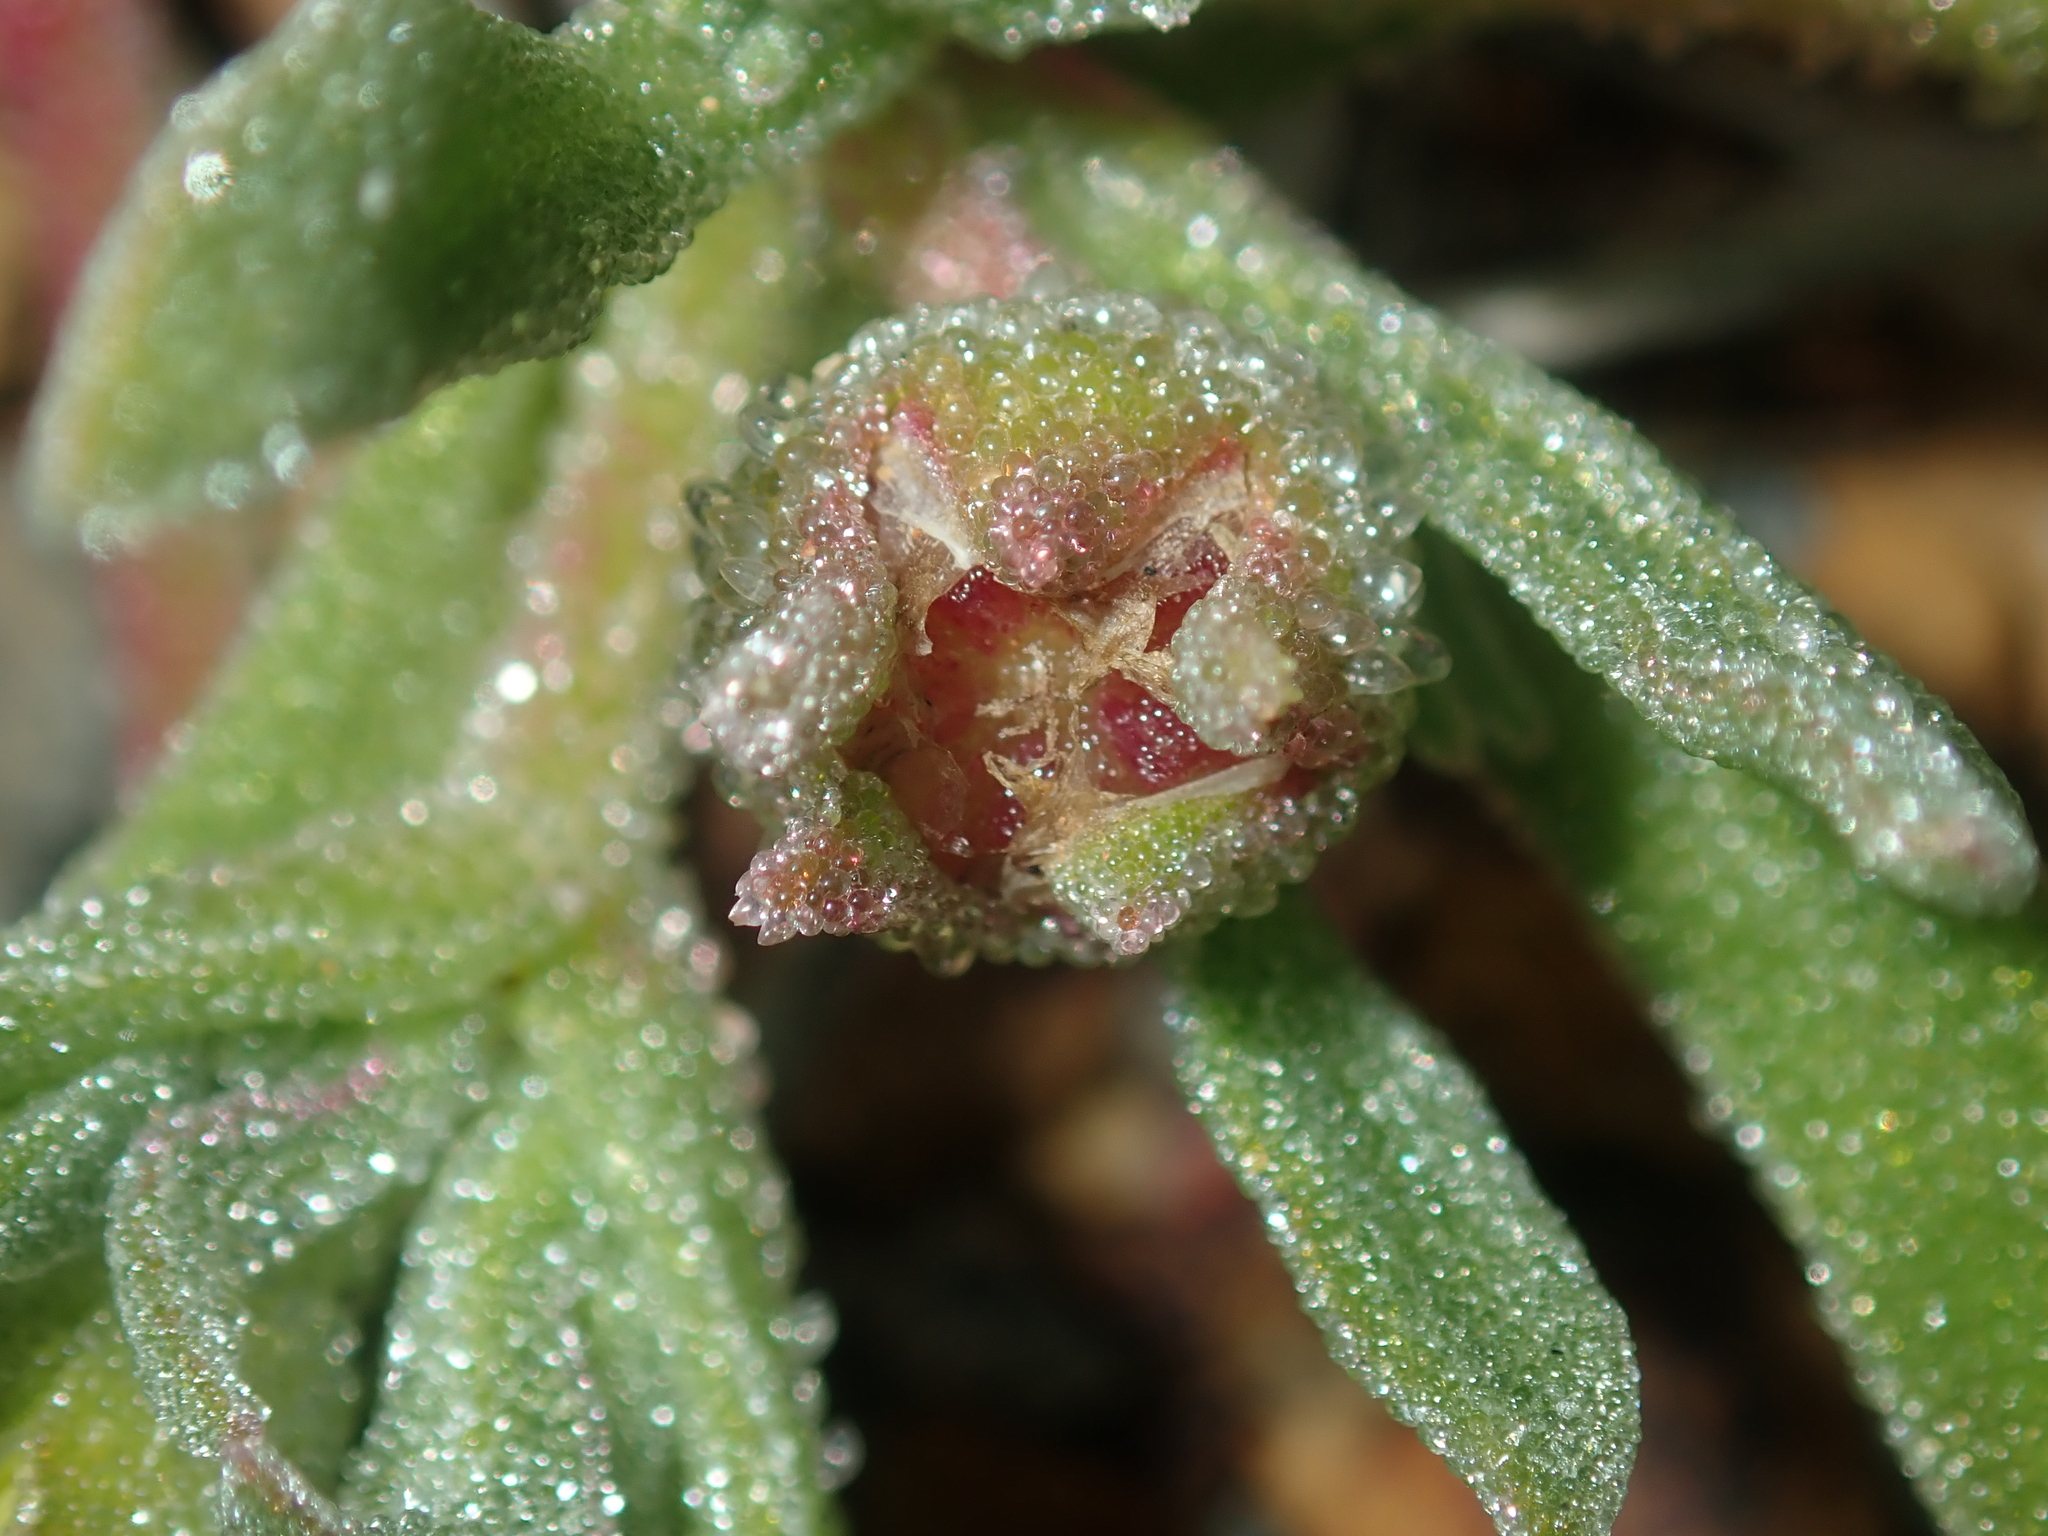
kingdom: Plantae
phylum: Tracheophyta
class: Magnoliopsida
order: Caryophyllales
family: Aizoaceae
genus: Cleretum
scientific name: Cleretum papulosum
